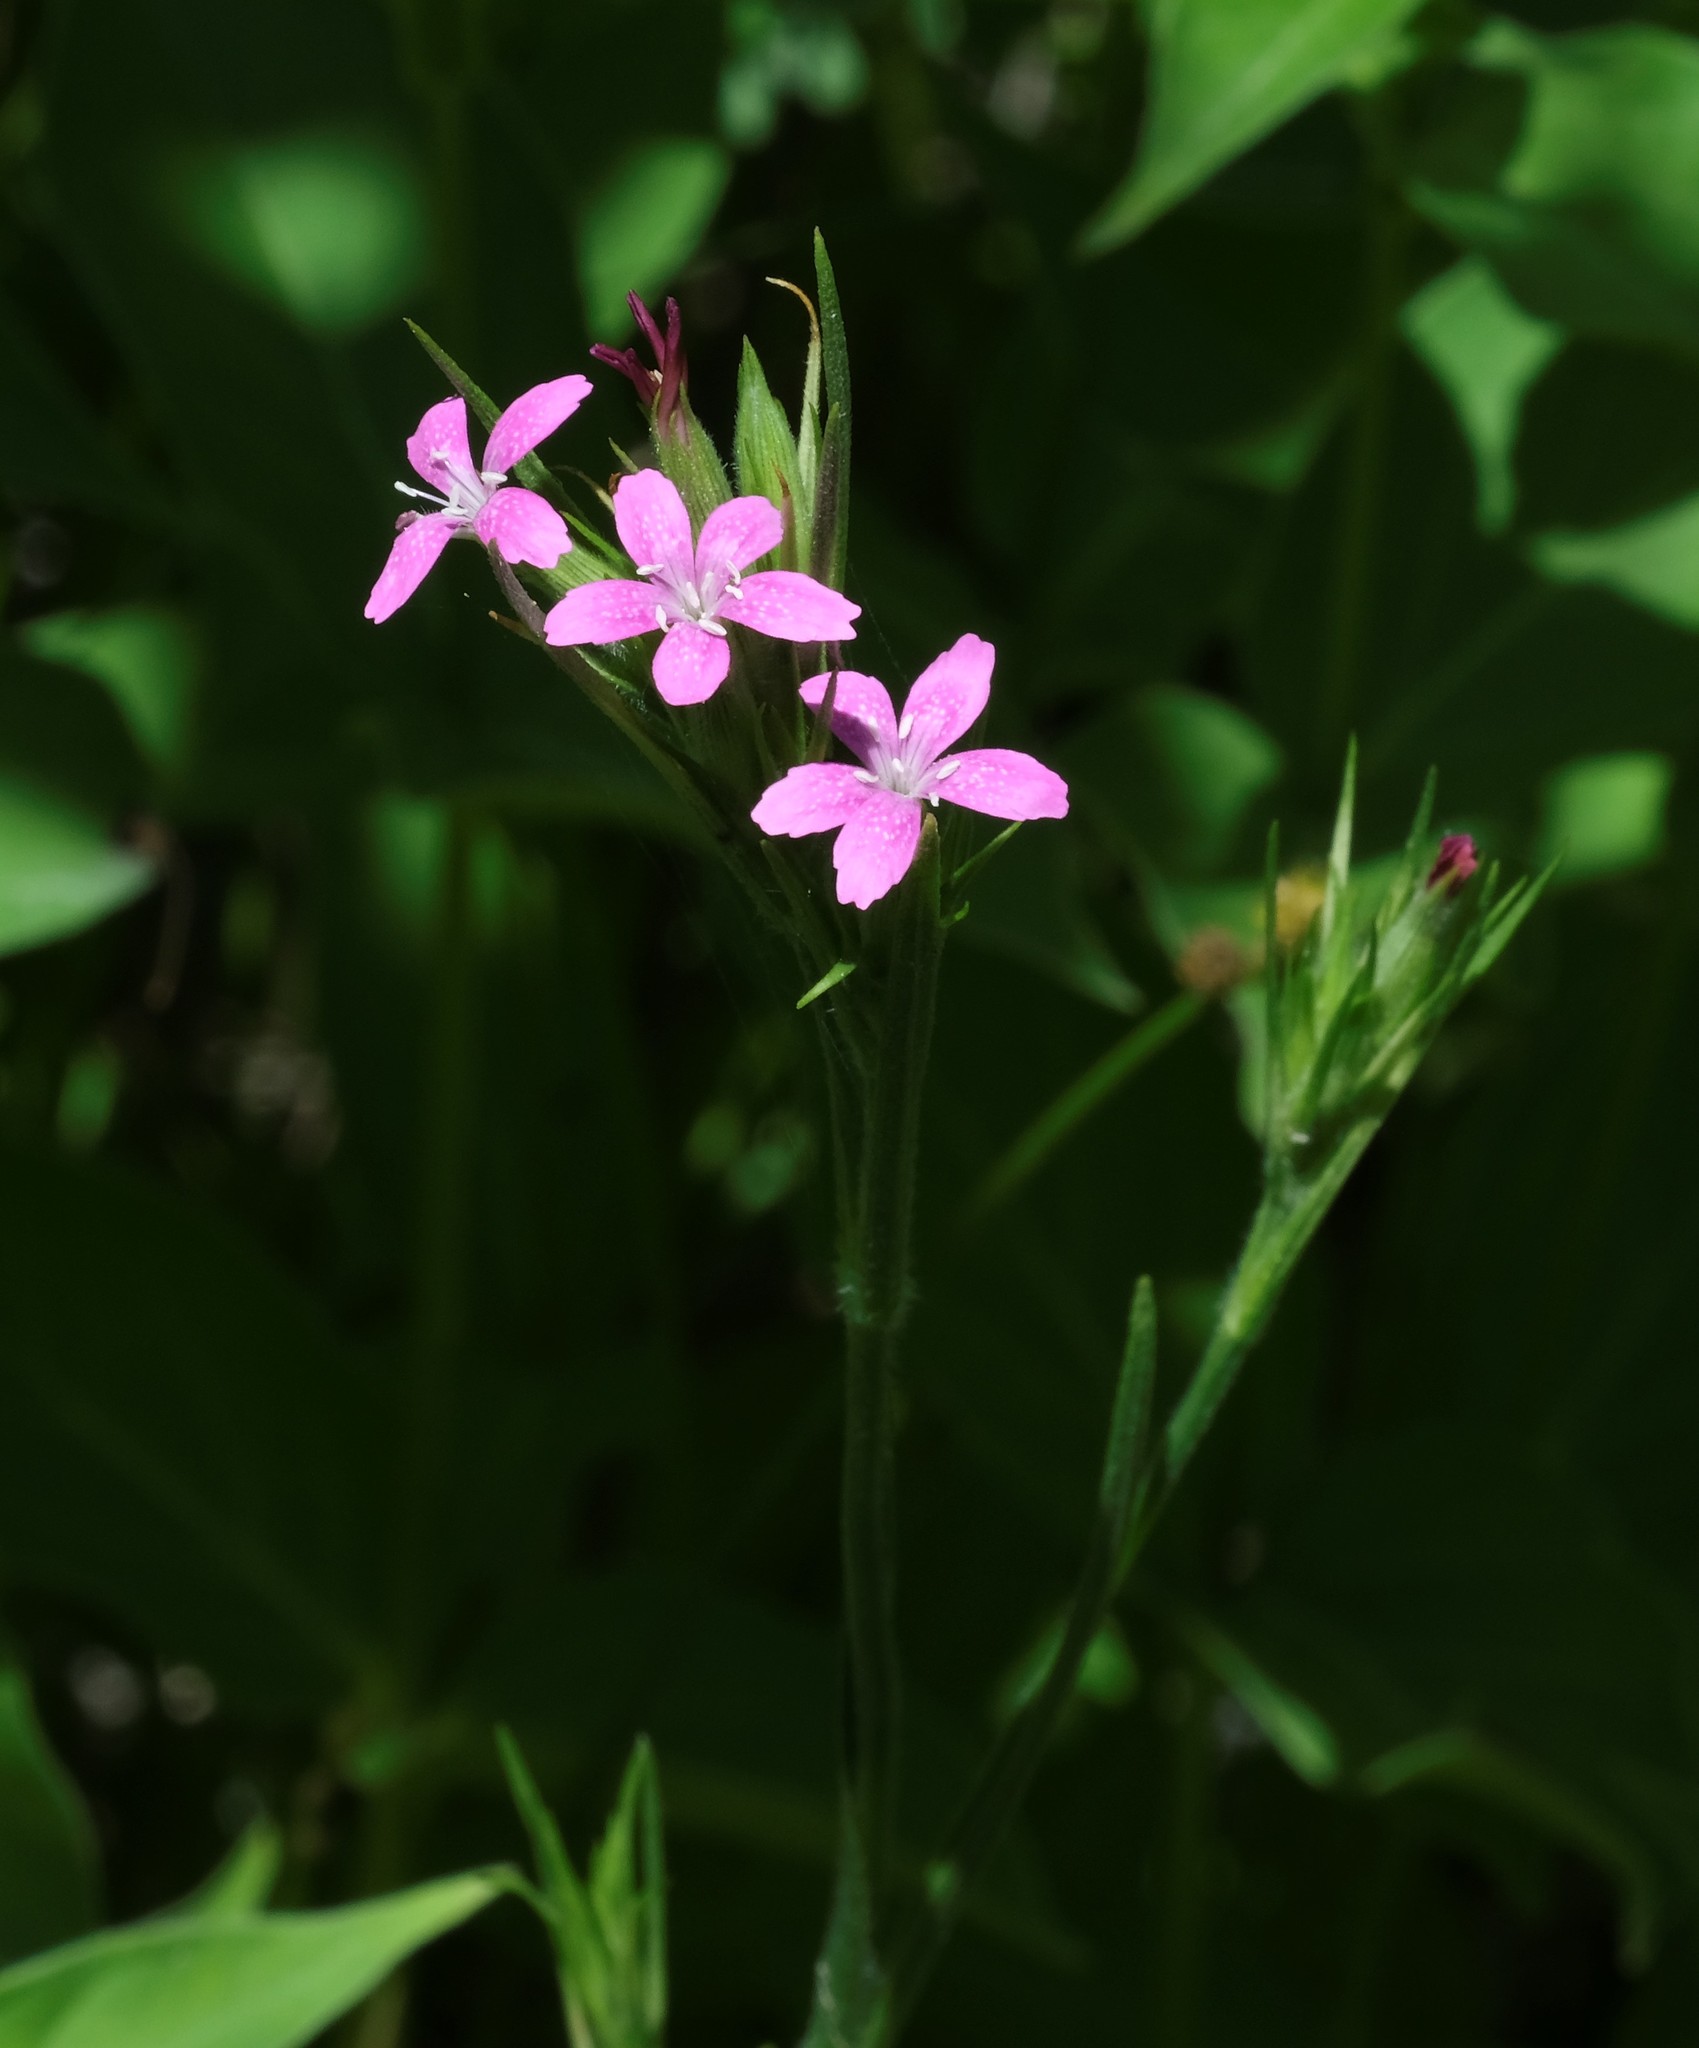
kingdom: Plantae
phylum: Tracheophyta
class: Magnoliopsida
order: Caryophyllales
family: Caryophyllaceae
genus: Dianthus
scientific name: Dianthus armeria
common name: Deptford pink
